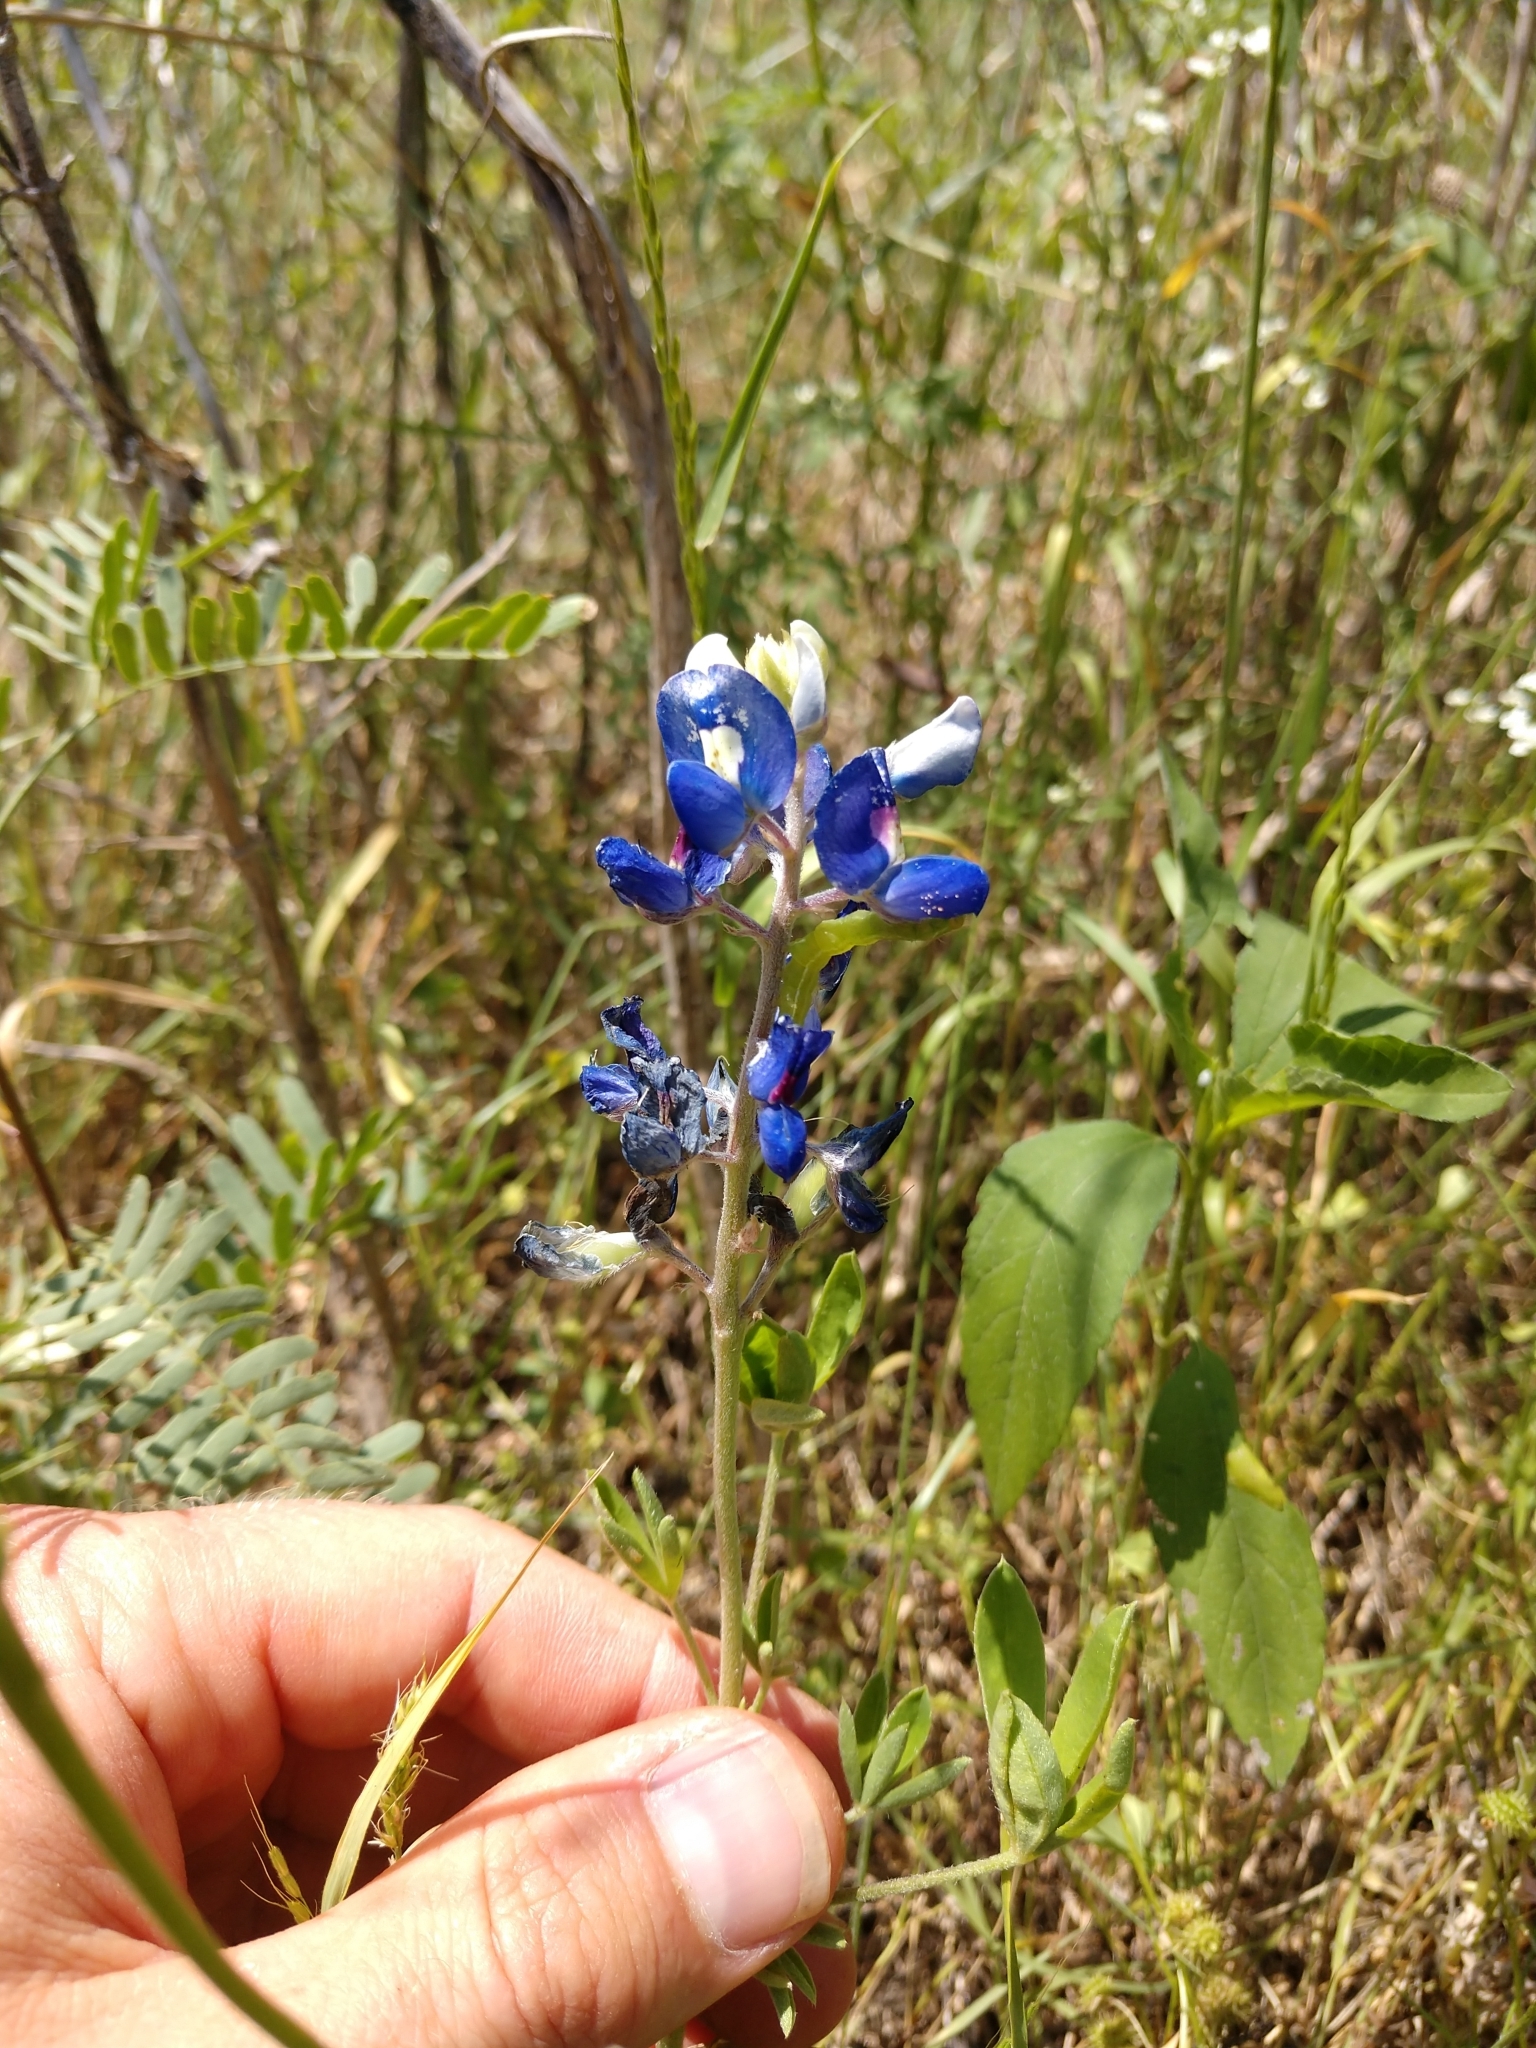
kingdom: Plantae
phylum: Tracheophyta
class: Magnoliopsida
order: Fabales
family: Fabaceae
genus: Lupinus
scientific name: Lupinus texensis
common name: Texas bluebonnet
